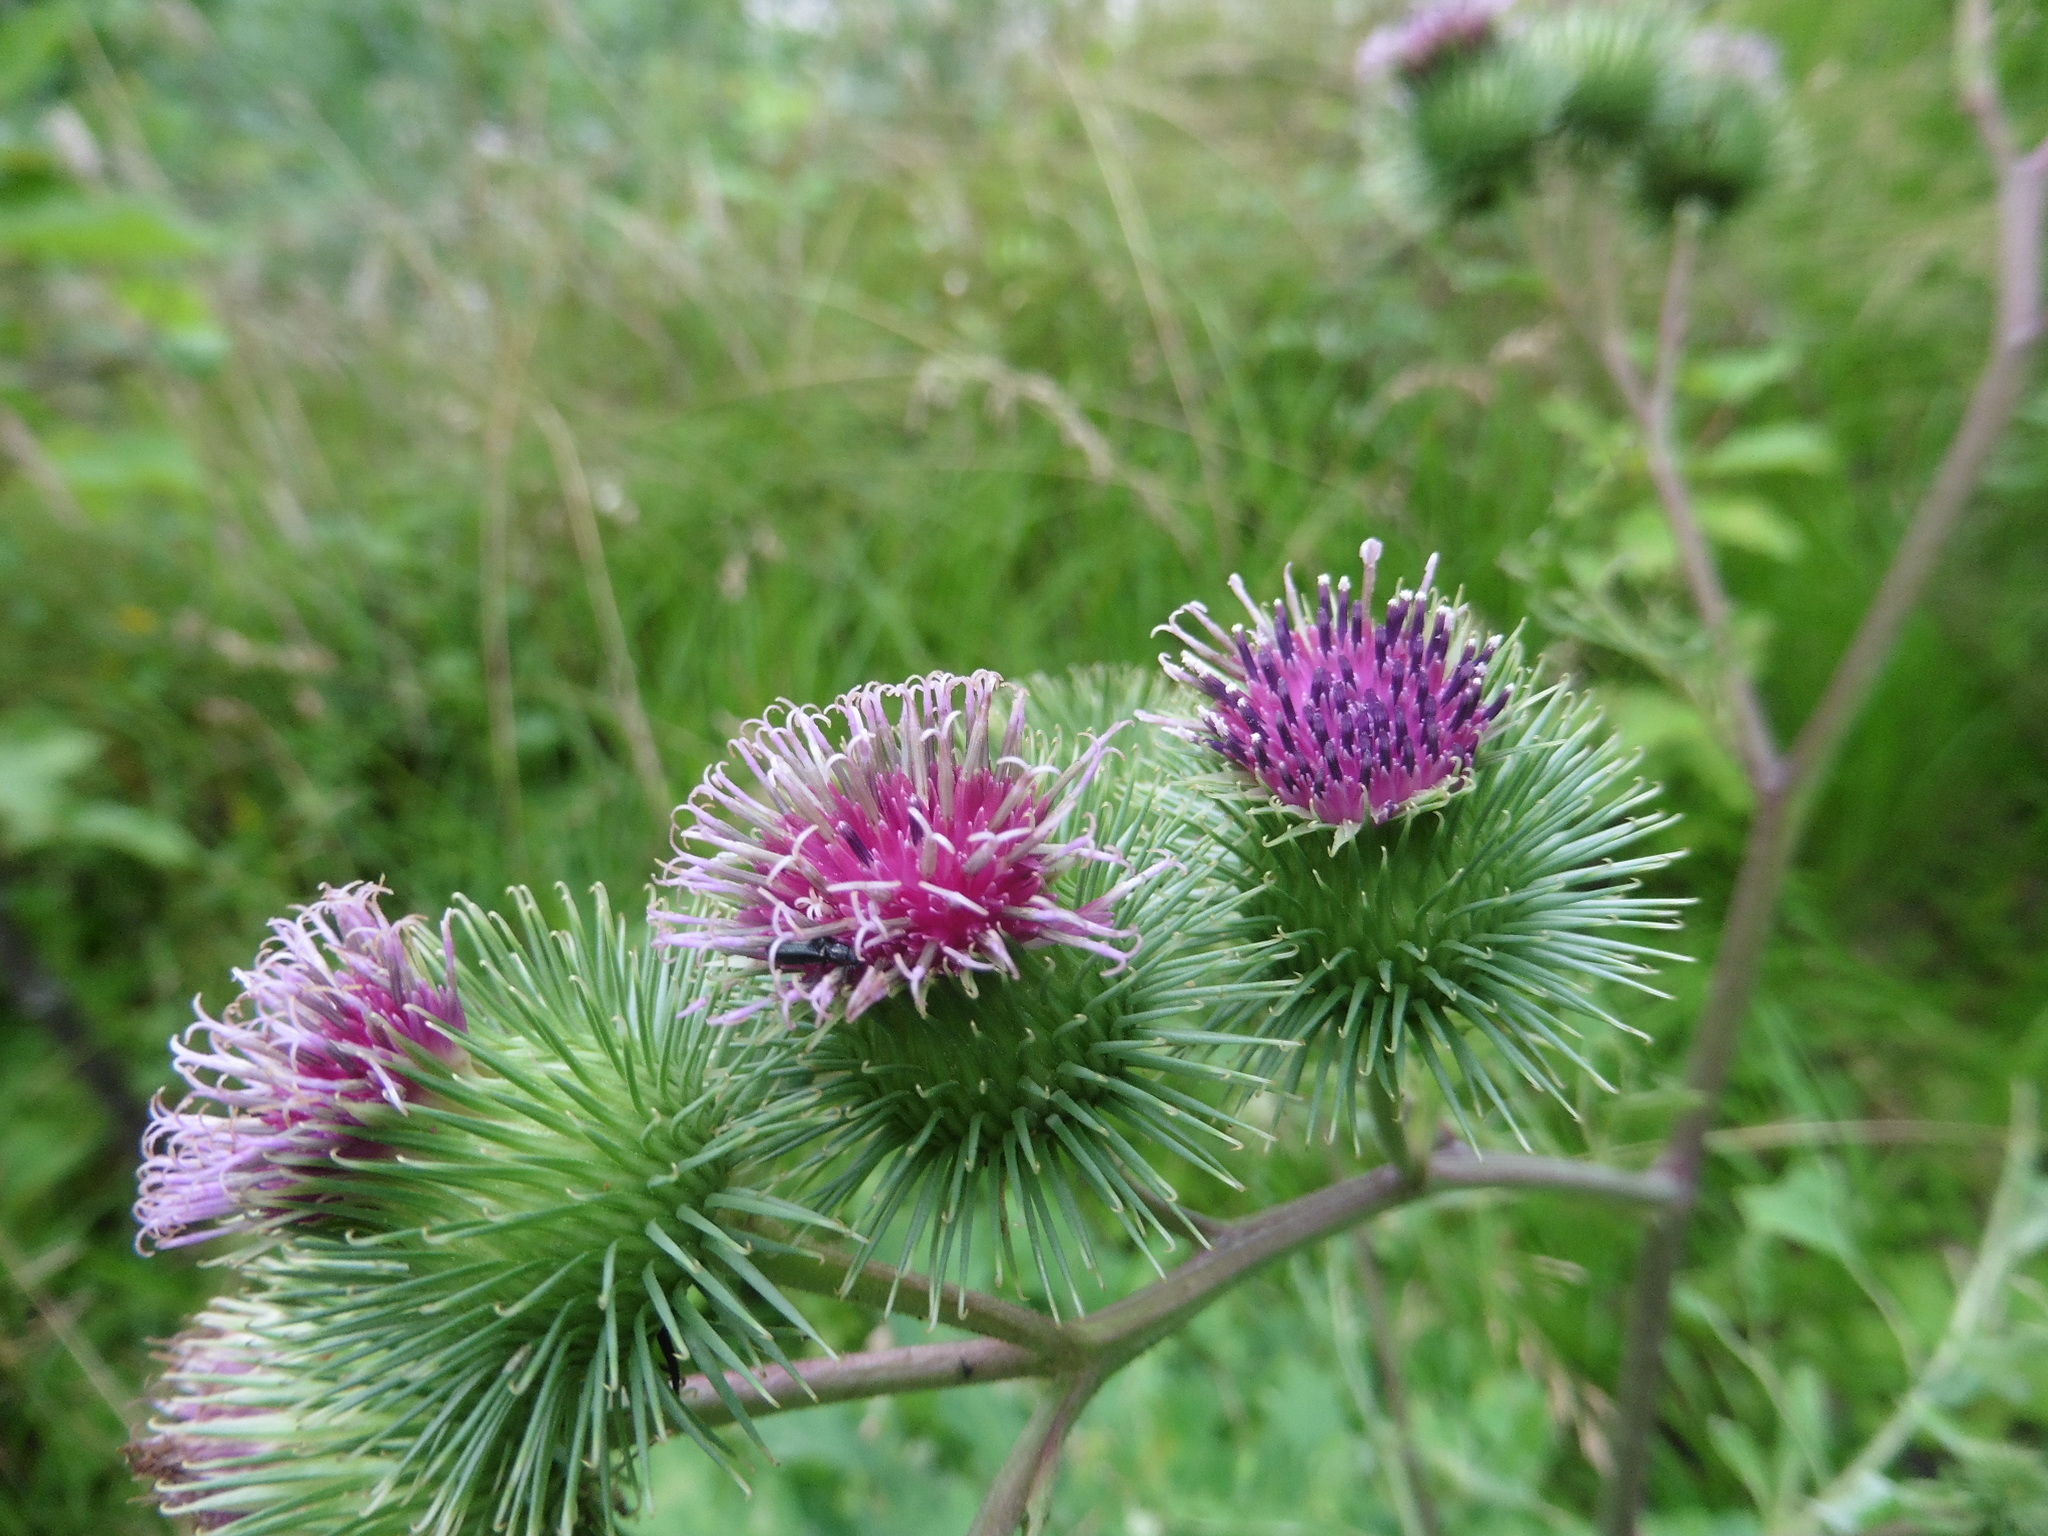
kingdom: Plantae
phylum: Tracheophyta
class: Magnoliopsida
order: Asterales
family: Asteraceae
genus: Arctium
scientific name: Arctium lappa
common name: Greater burdock
